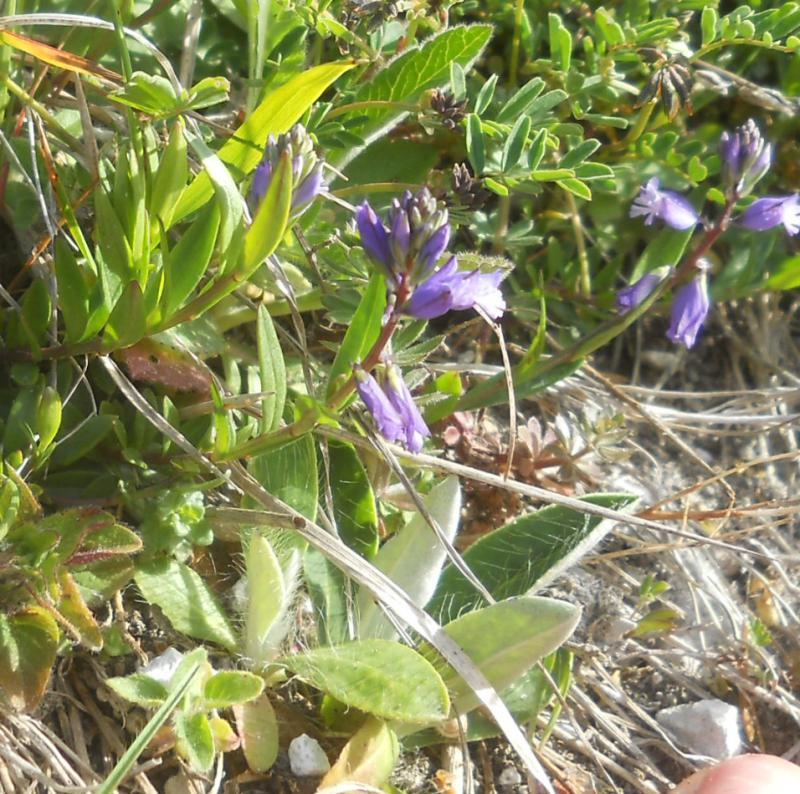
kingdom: Plantae
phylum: Tracheophyta
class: Magnoliopsida
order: Asterales
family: Asteraceae
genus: Pilosella
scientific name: Pilosella officinarum
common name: Mouse-ear hawkweed
